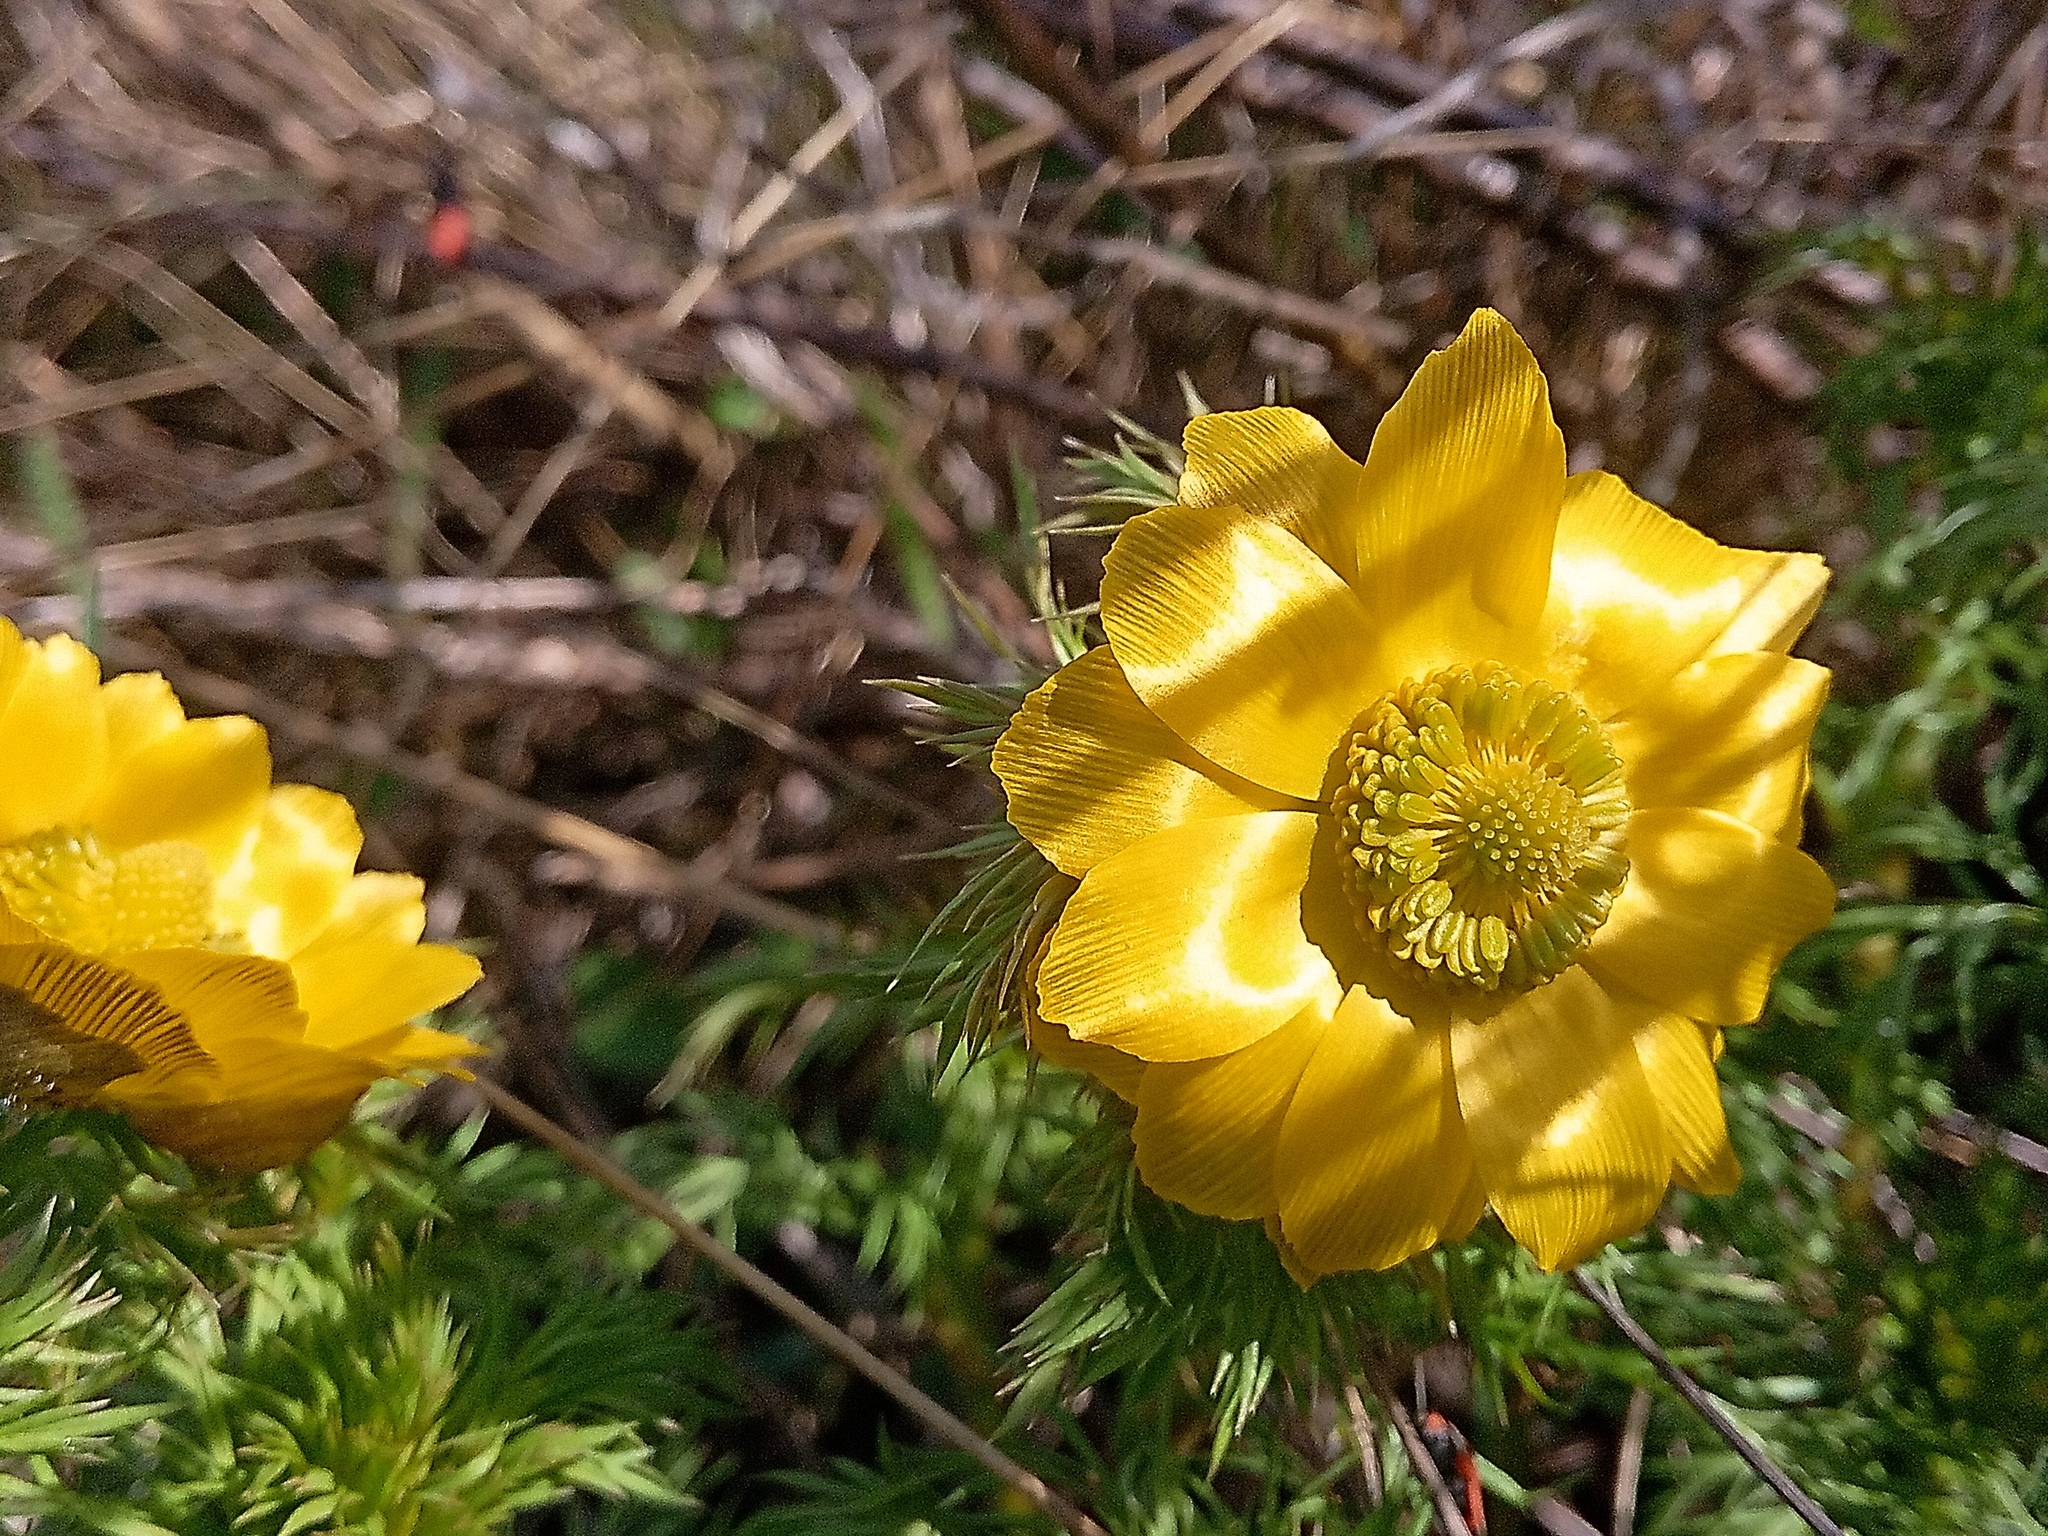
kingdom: Plantae
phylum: Tracheophyta
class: Magnoliopsida
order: Ranunculales
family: Ranunculaceae
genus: Adonis
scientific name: Adonis volgensis
